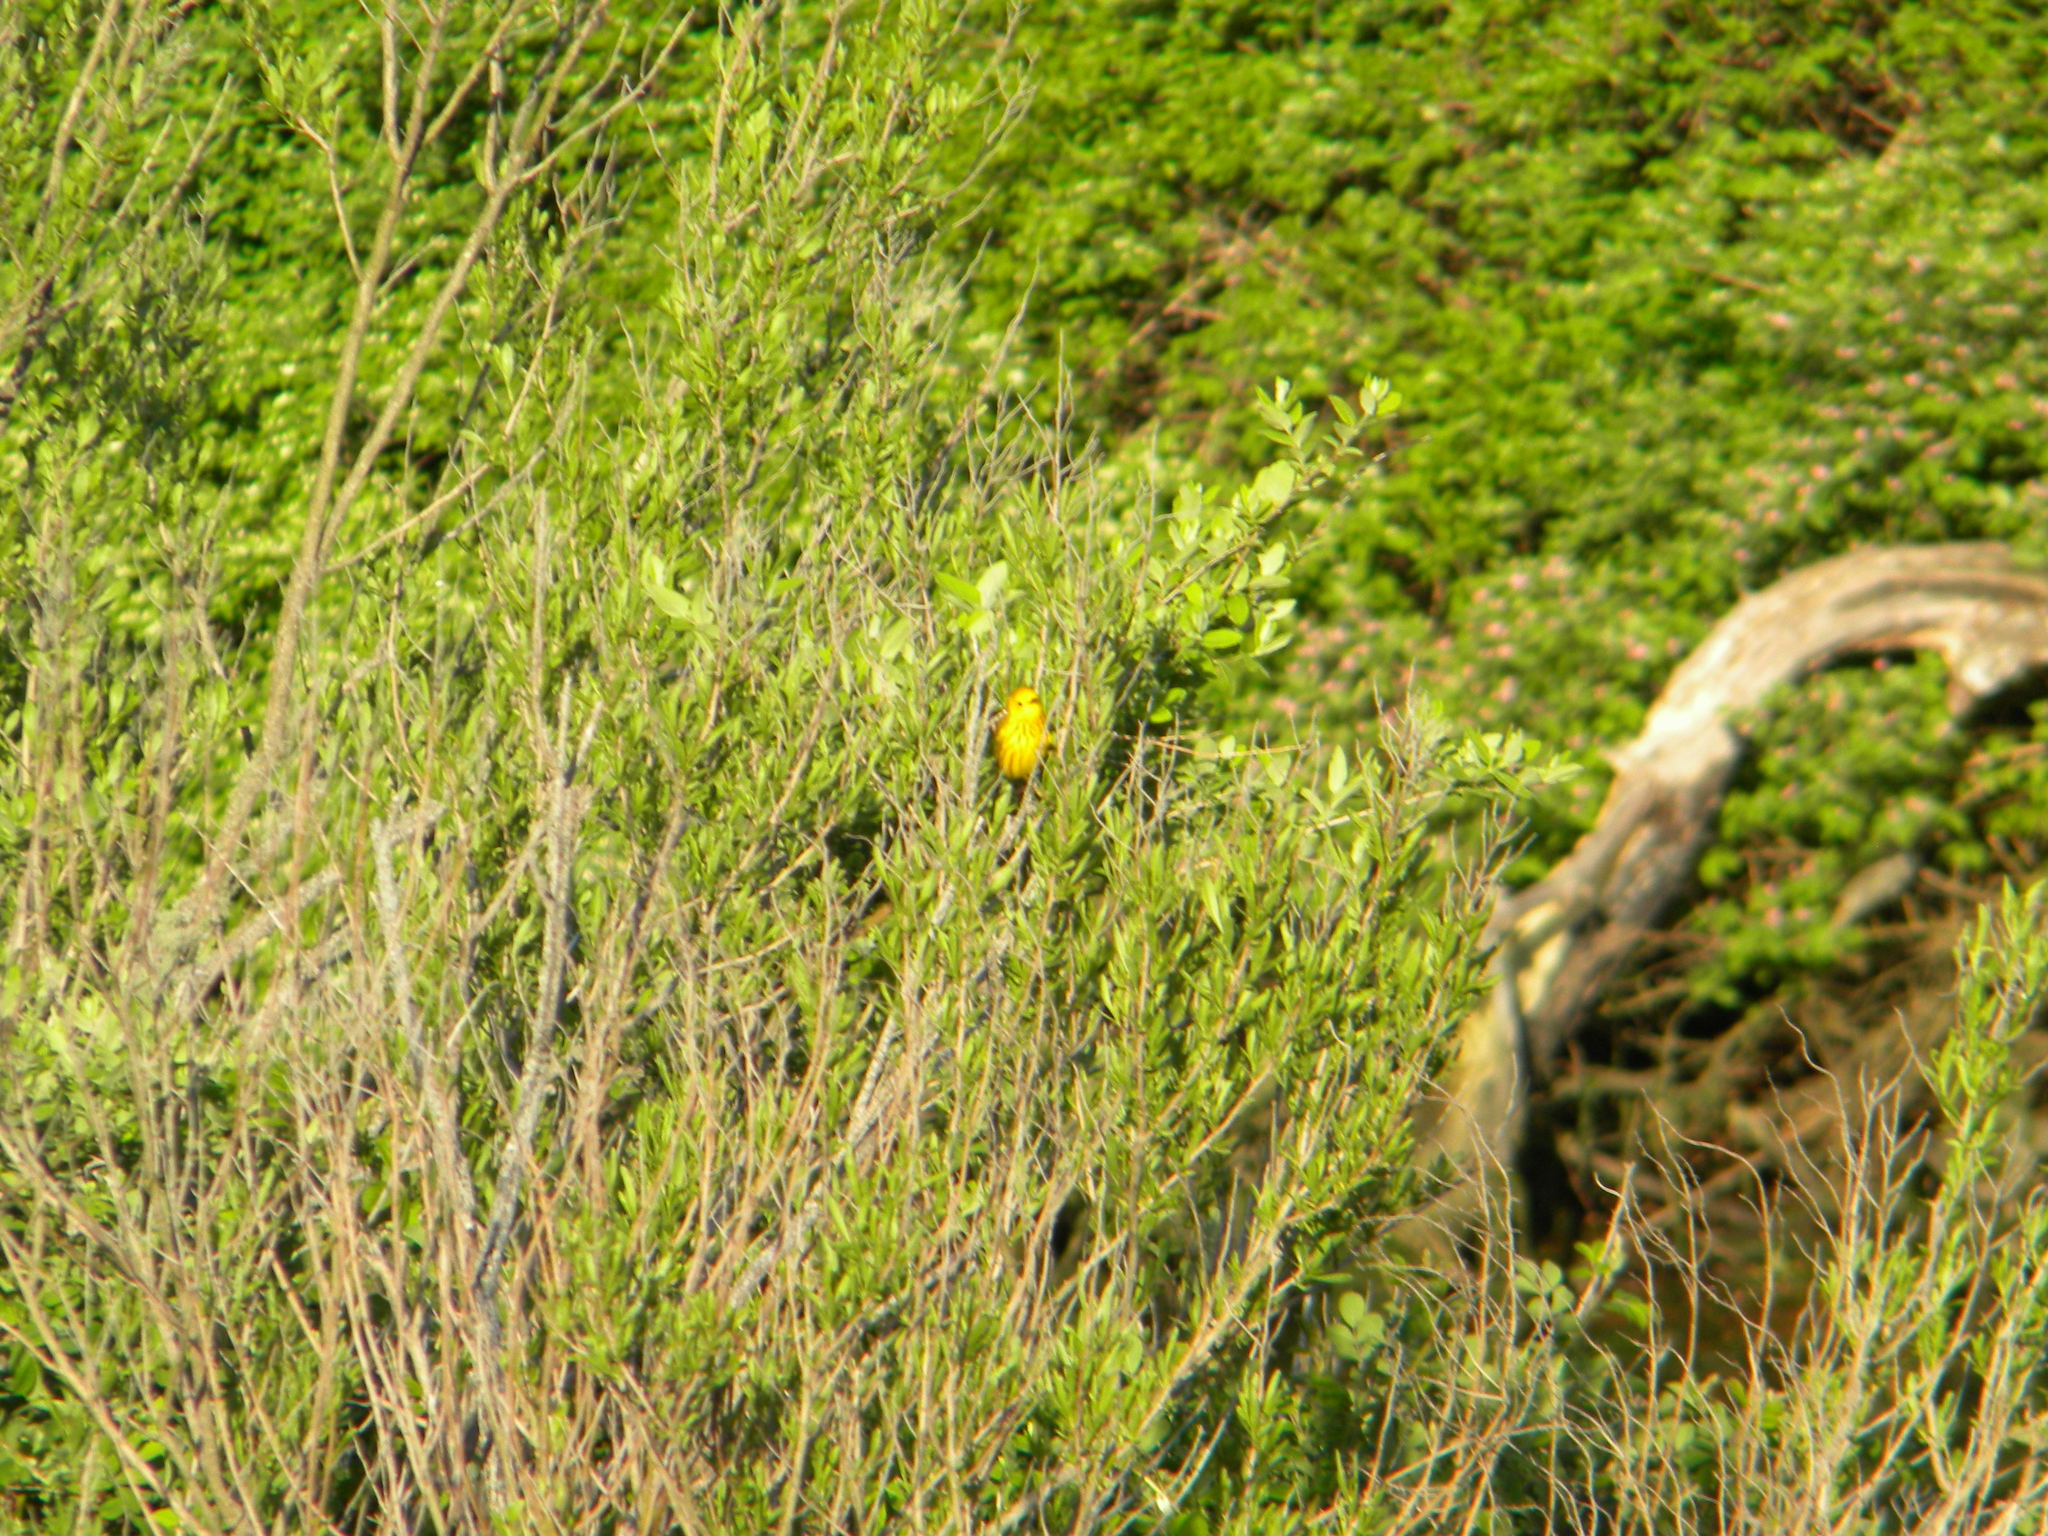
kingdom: Animalia
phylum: Chordata
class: Aves
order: Passeriformes
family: Parulidae
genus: Setophaga
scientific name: Setophaga petechia
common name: Yellow warbler
